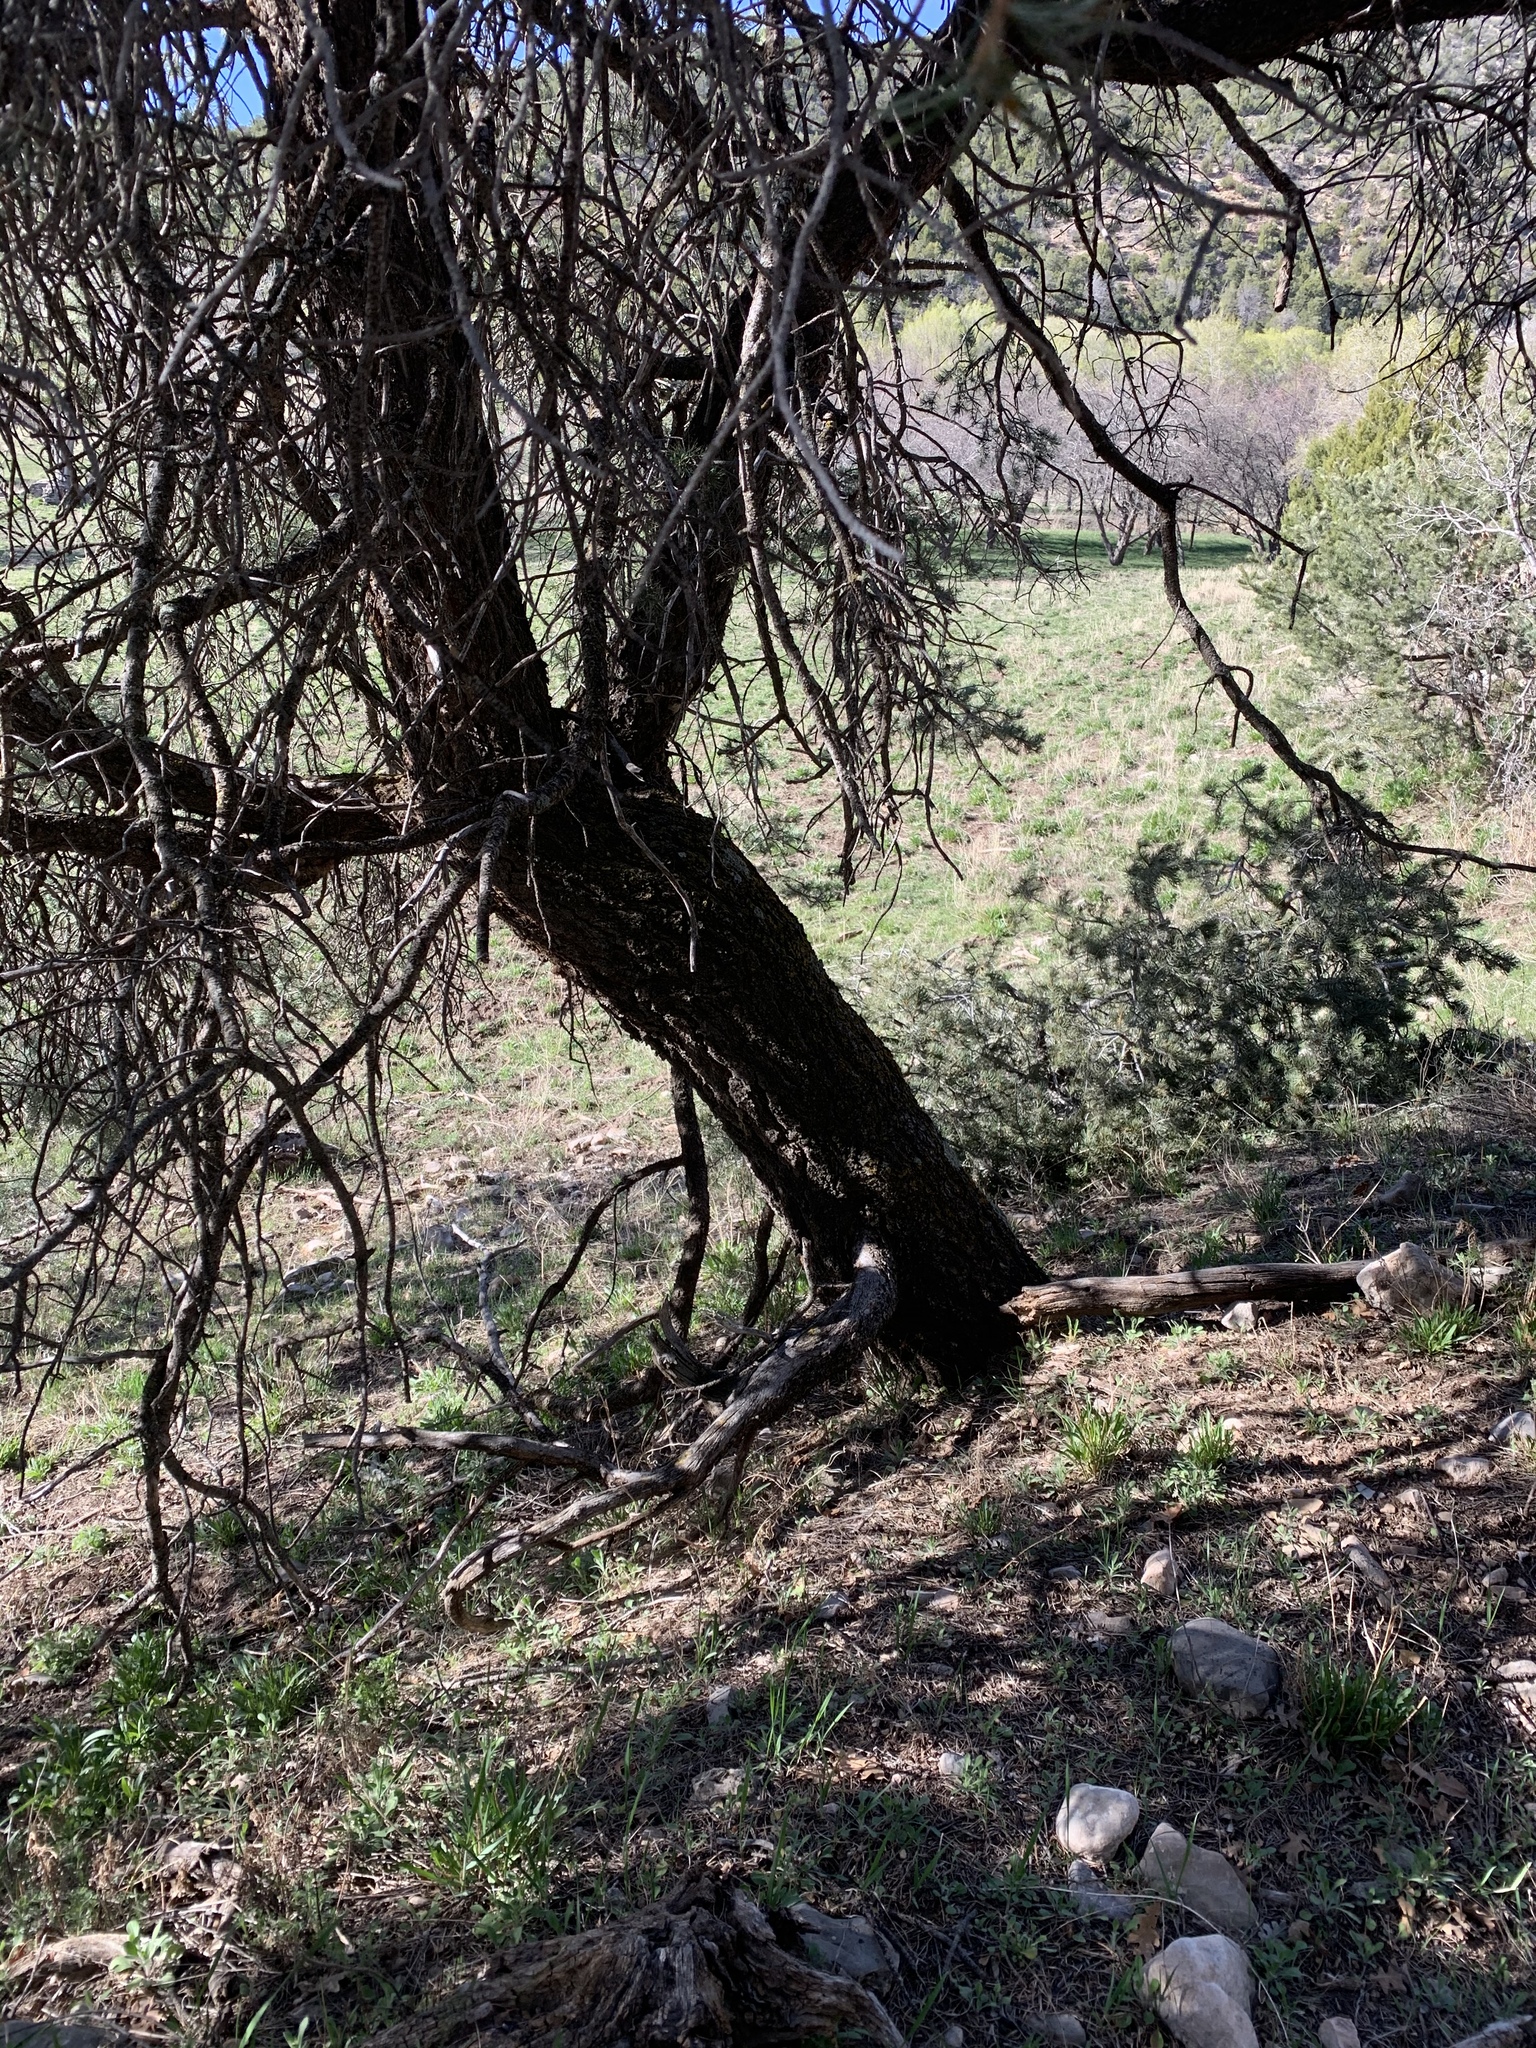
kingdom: Plantae
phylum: Tracheophyta
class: Pinopsida
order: Pinales
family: Pinaceae
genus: Pinus
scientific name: Pinus edulis
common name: Colorado pinyon
